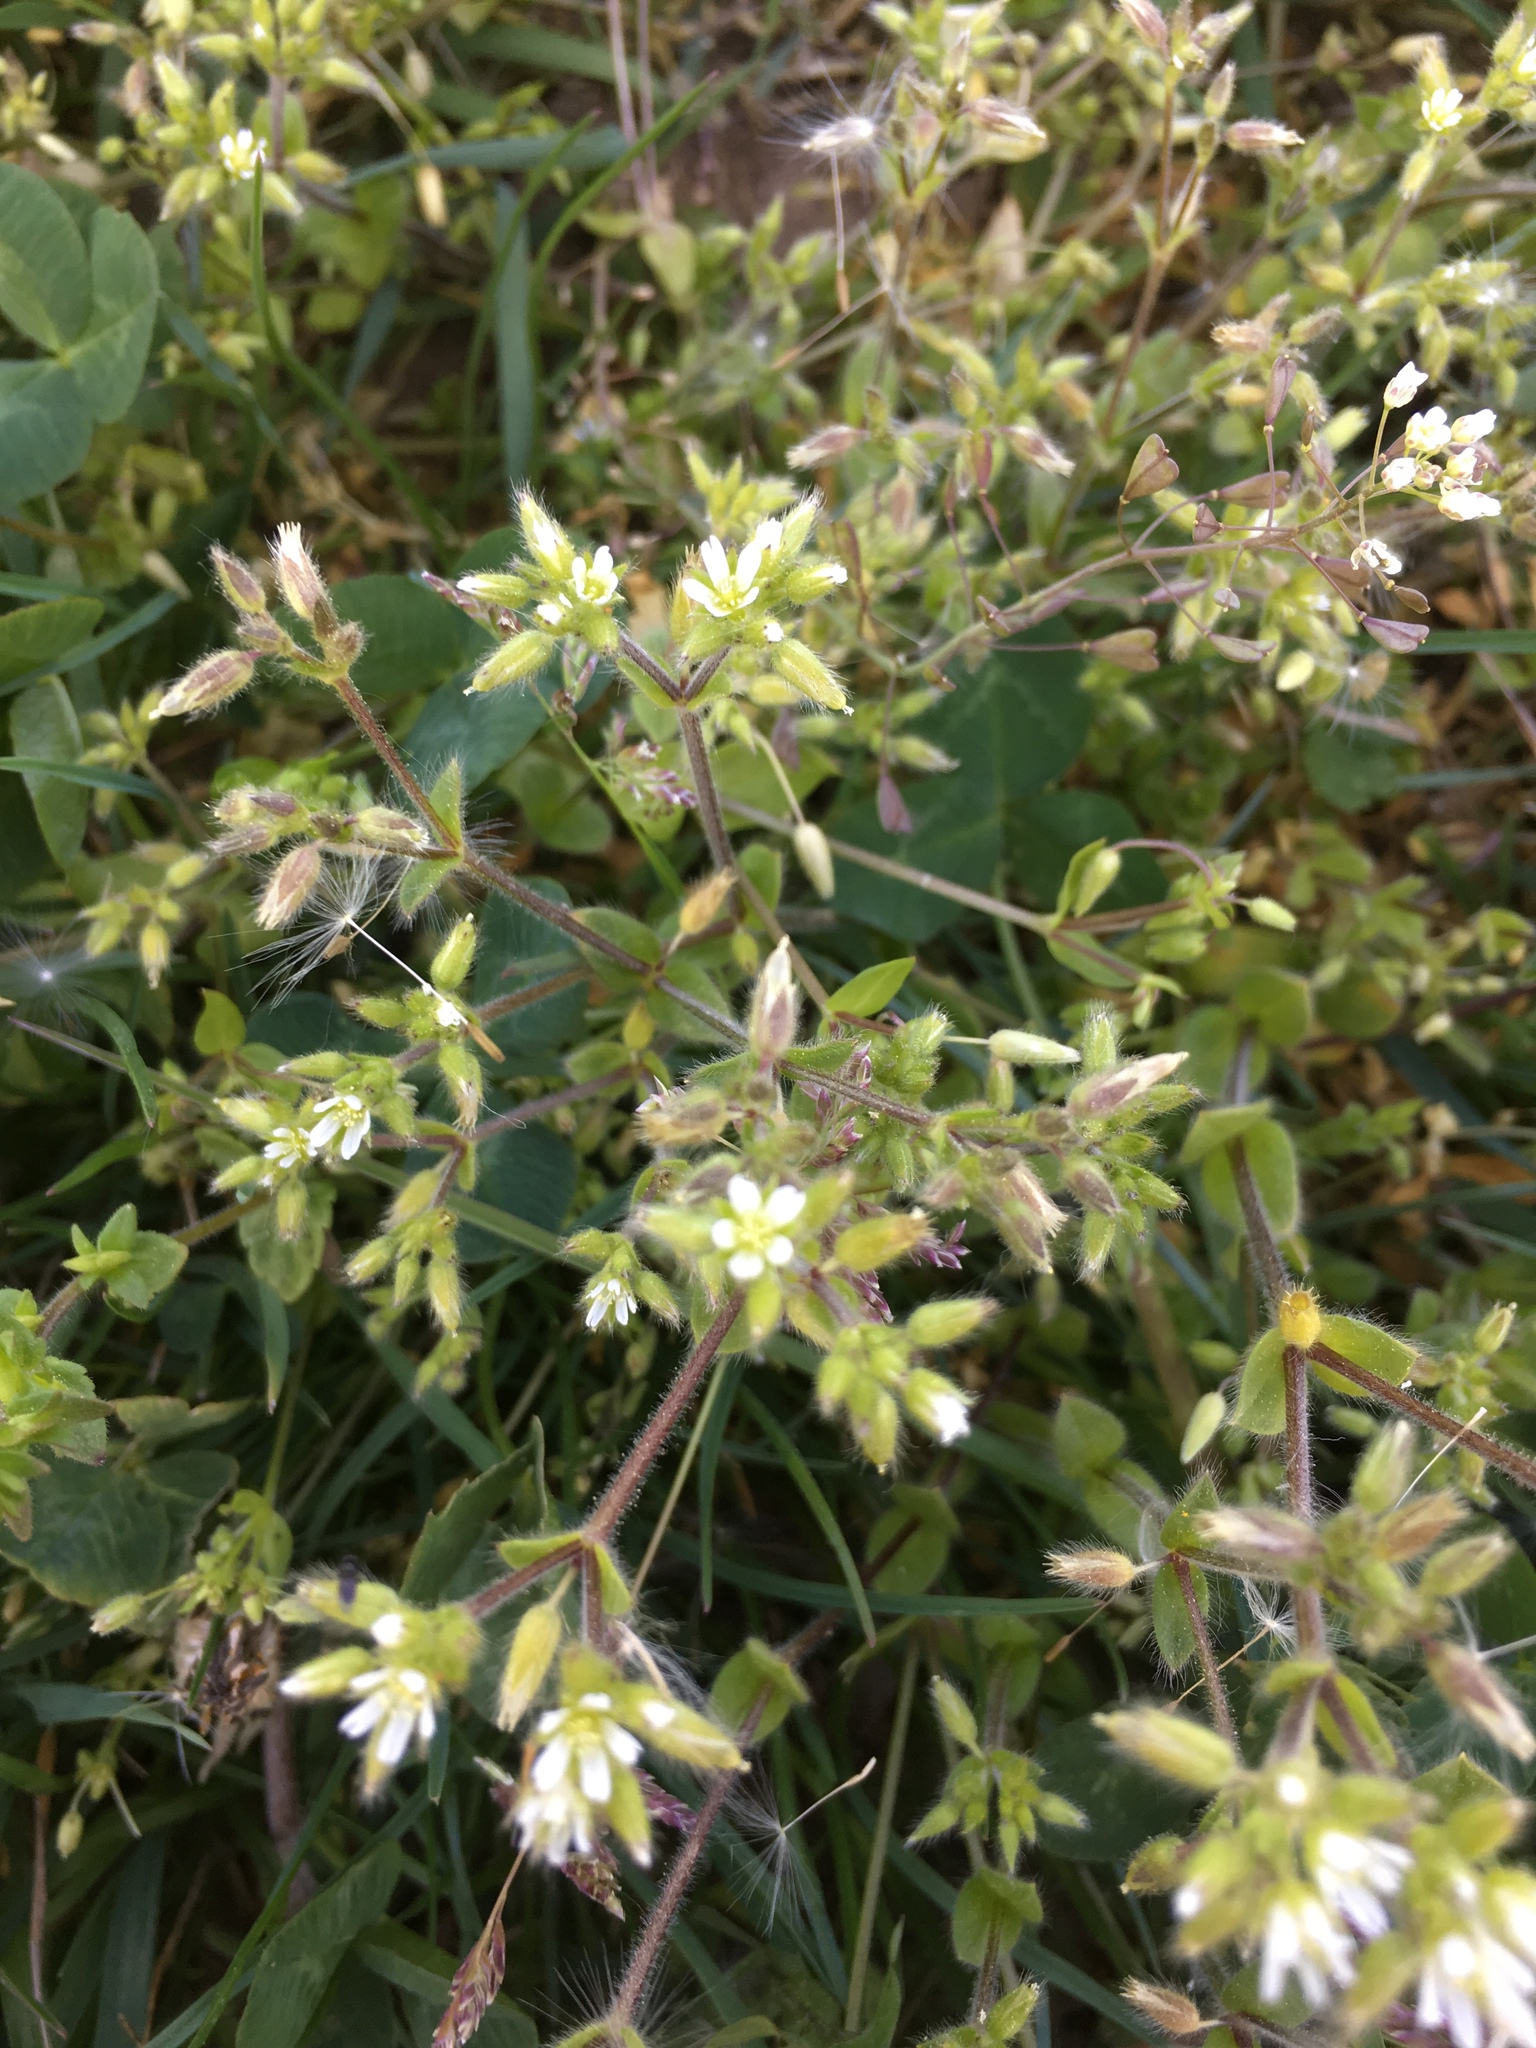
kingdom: Plantae
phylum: Tracheophyta
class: Magnoliopsida
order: Caryophyllales
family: Caryophyllaceae
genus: Cerastium
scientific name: Cerastium glomeratum
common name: Sticky chickweed
